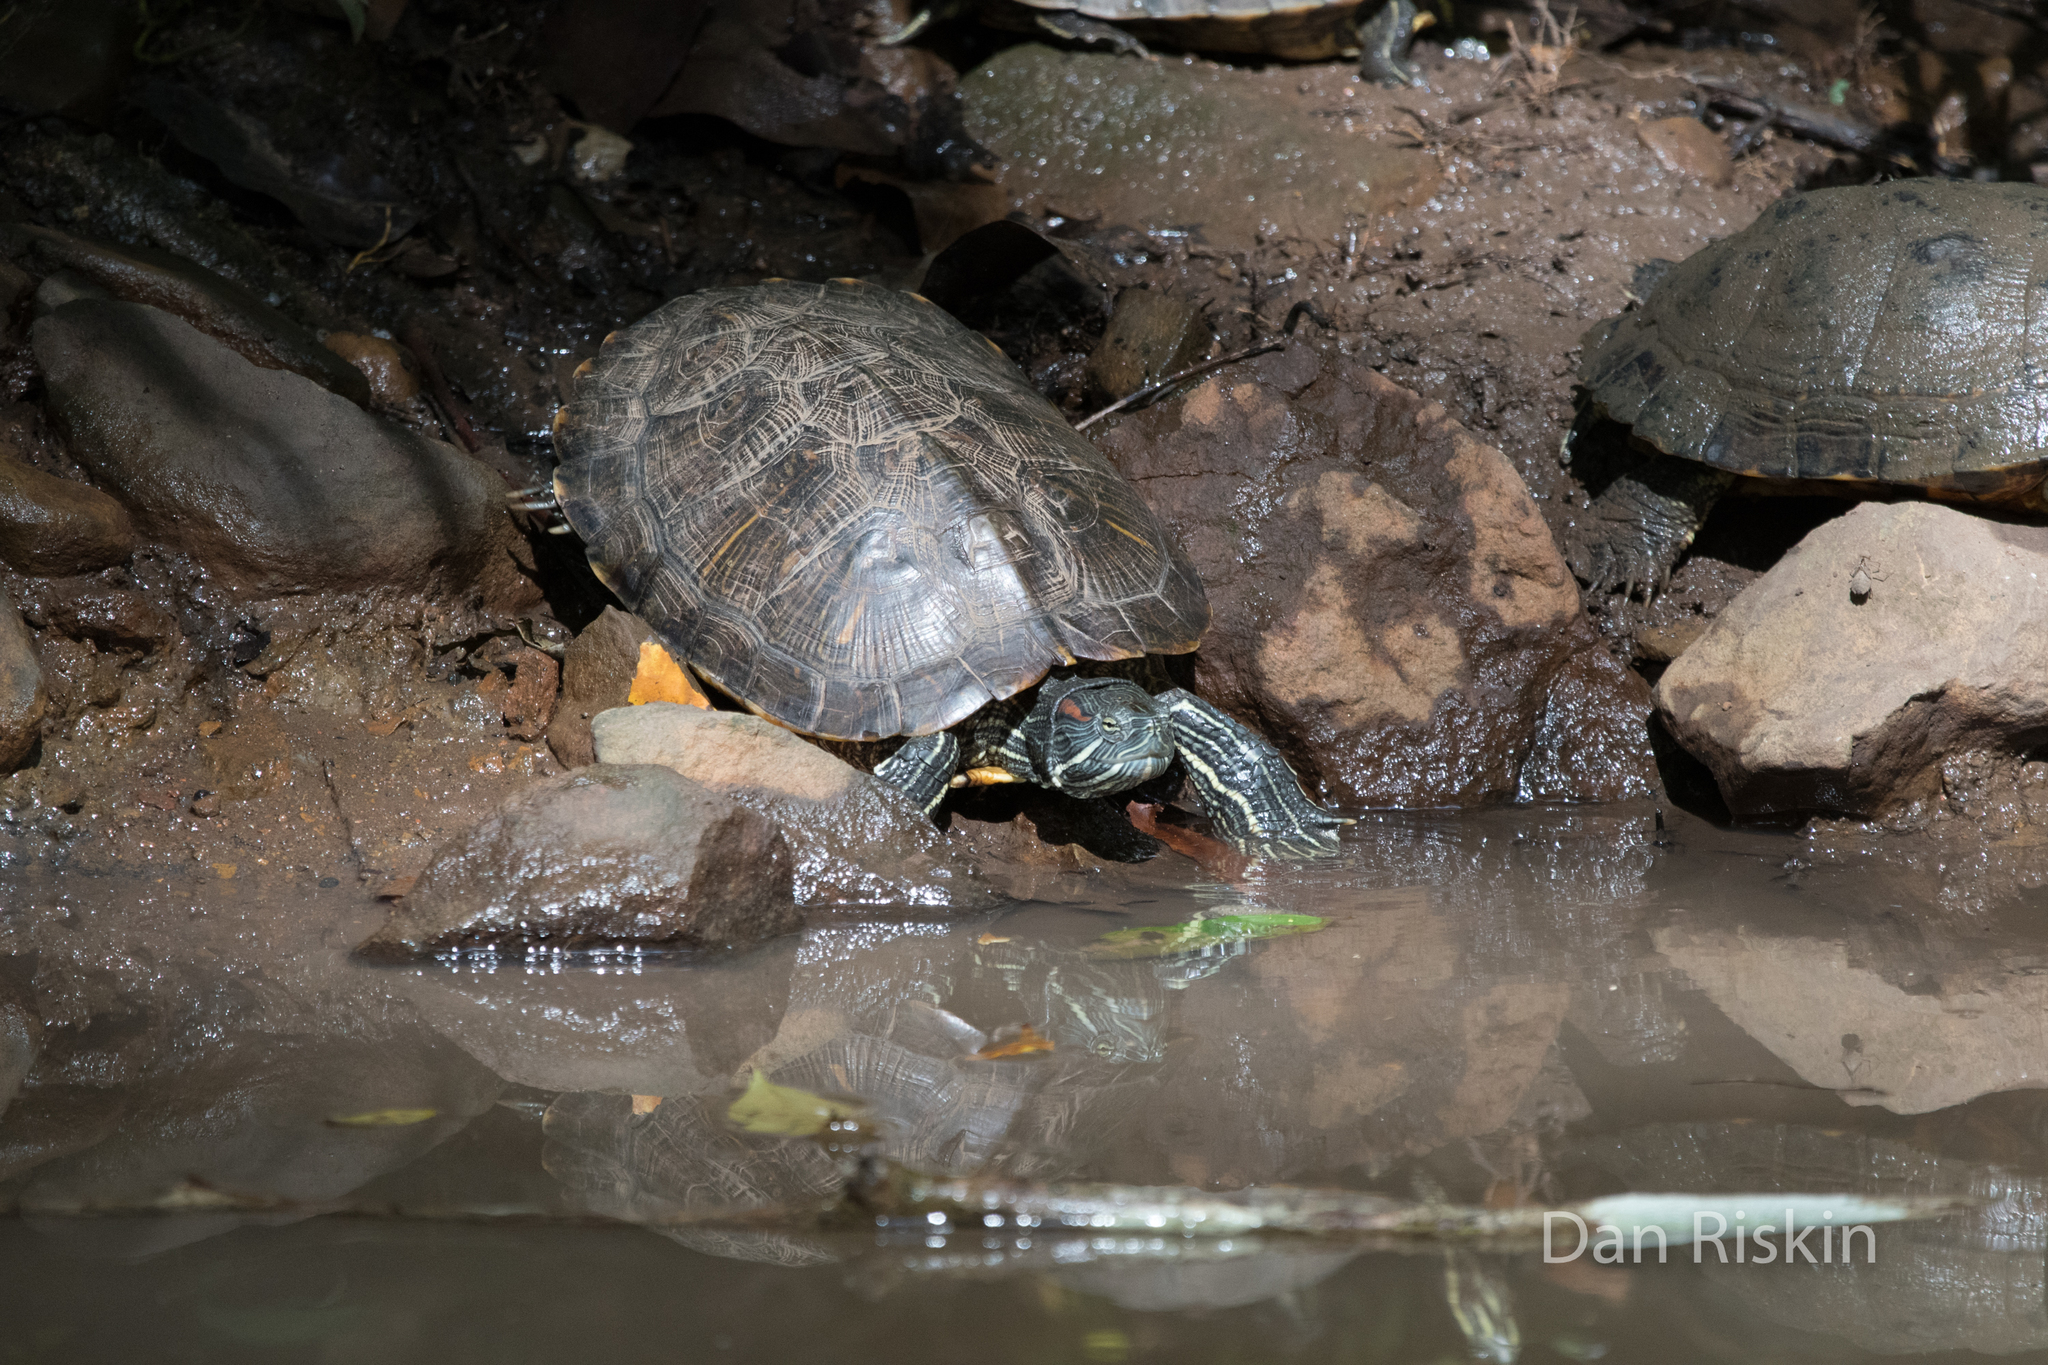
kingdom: Animalia
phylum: Chordata
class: Testudines
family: Emydidae
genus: Trachemys
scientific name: Trachemys scripta
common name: Slider
